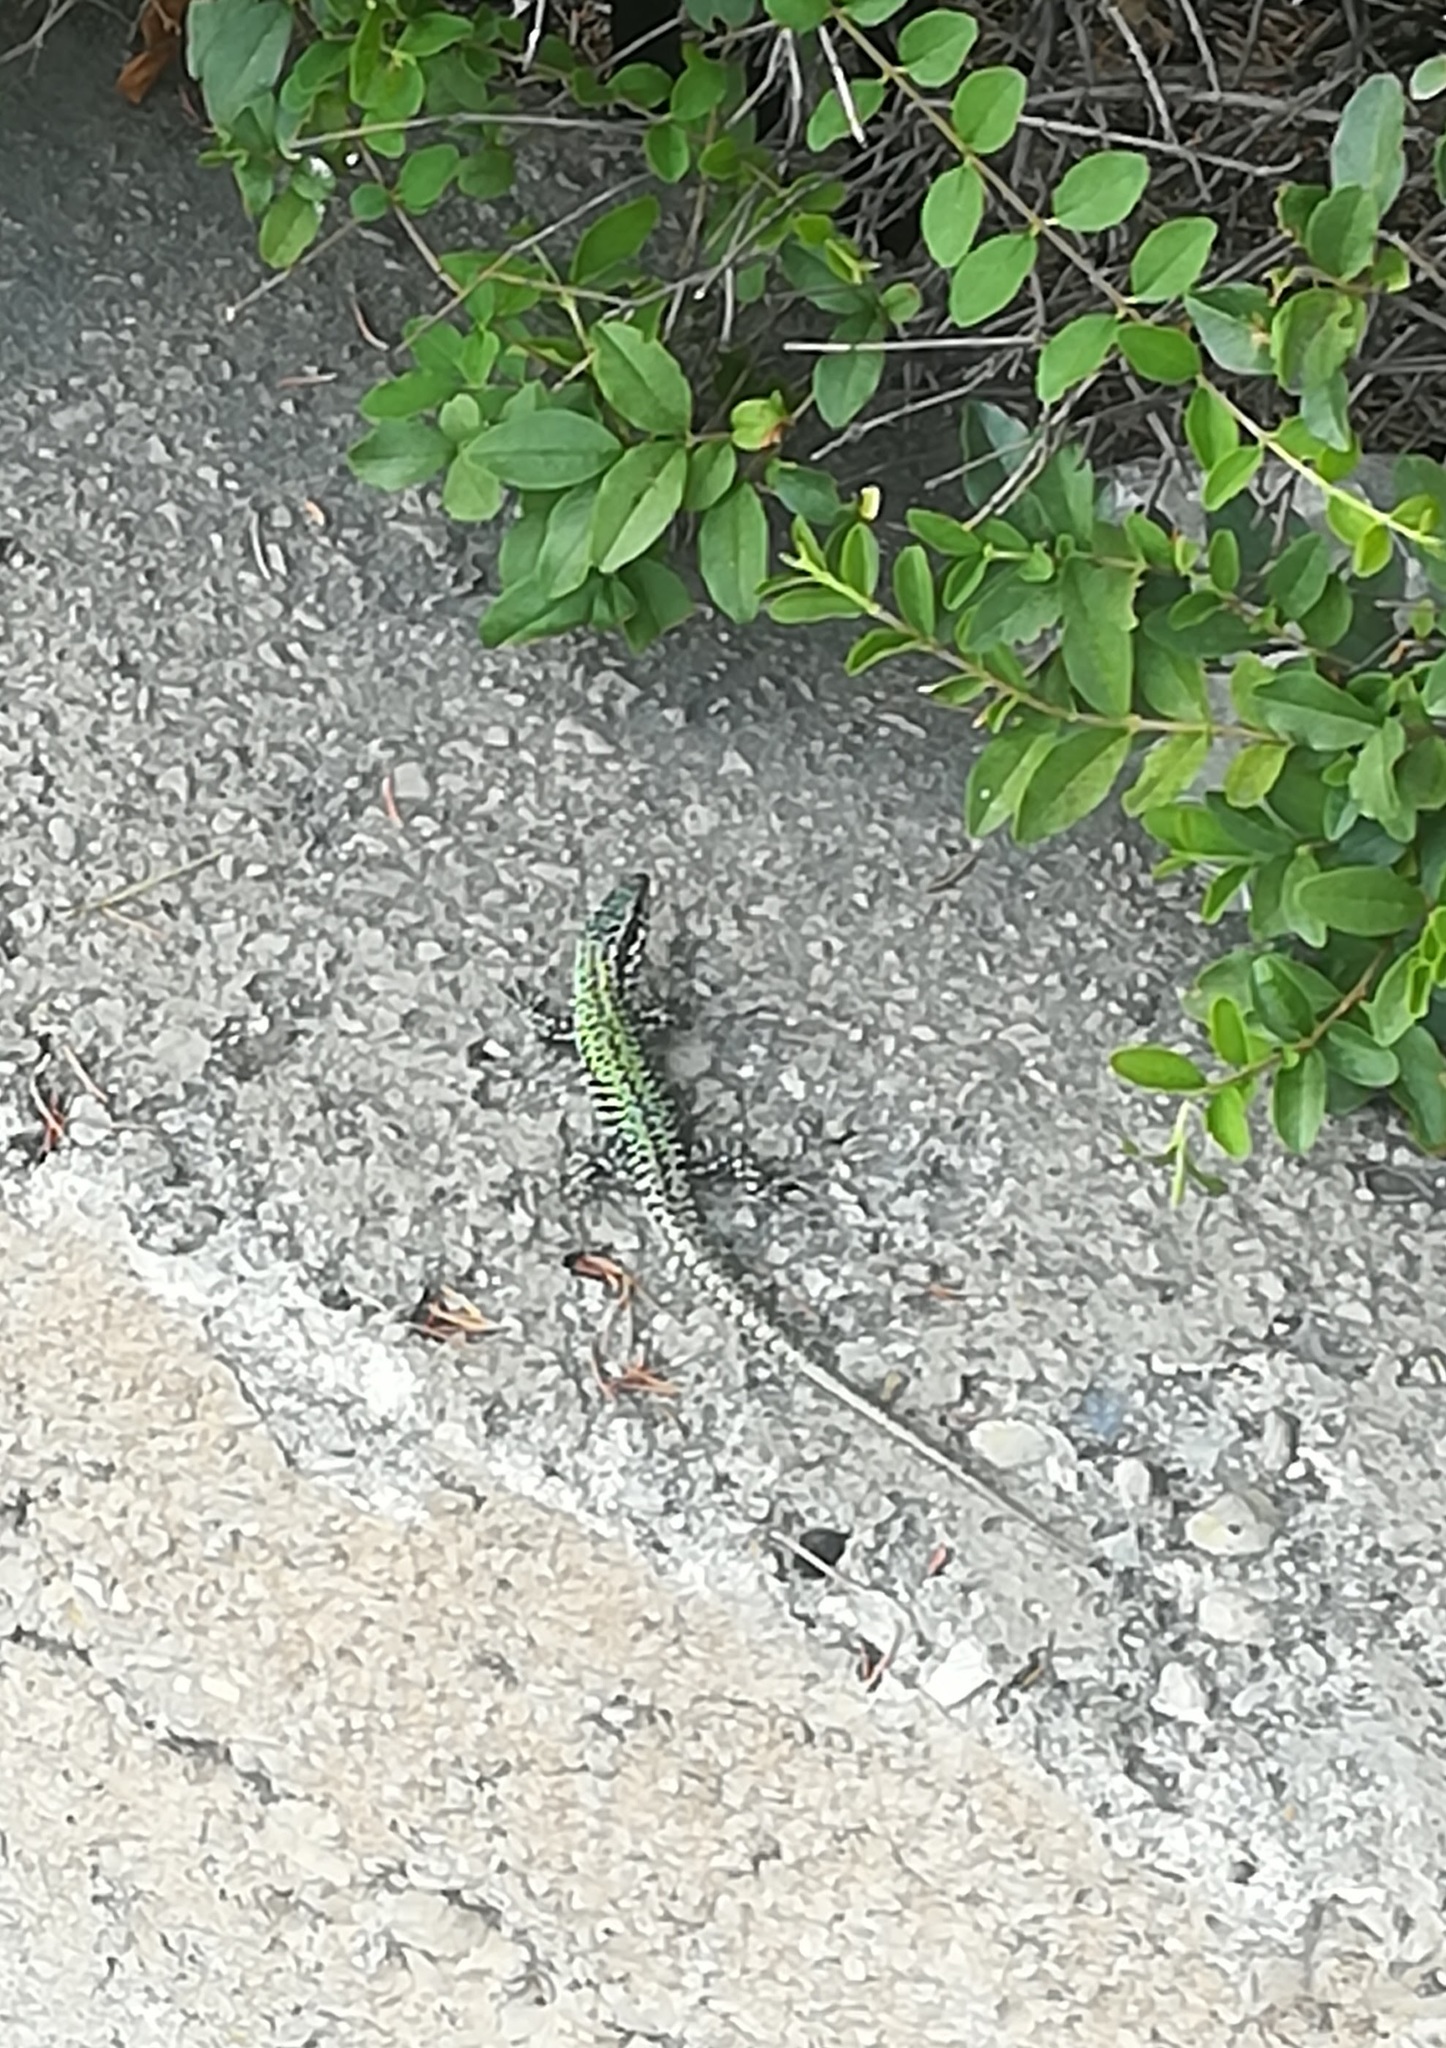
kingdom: Animalia
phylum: Chordata
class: Squamata
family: Lacertidae
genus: Podarcis
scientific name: Podarcis muralis
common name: Common wall lizard
